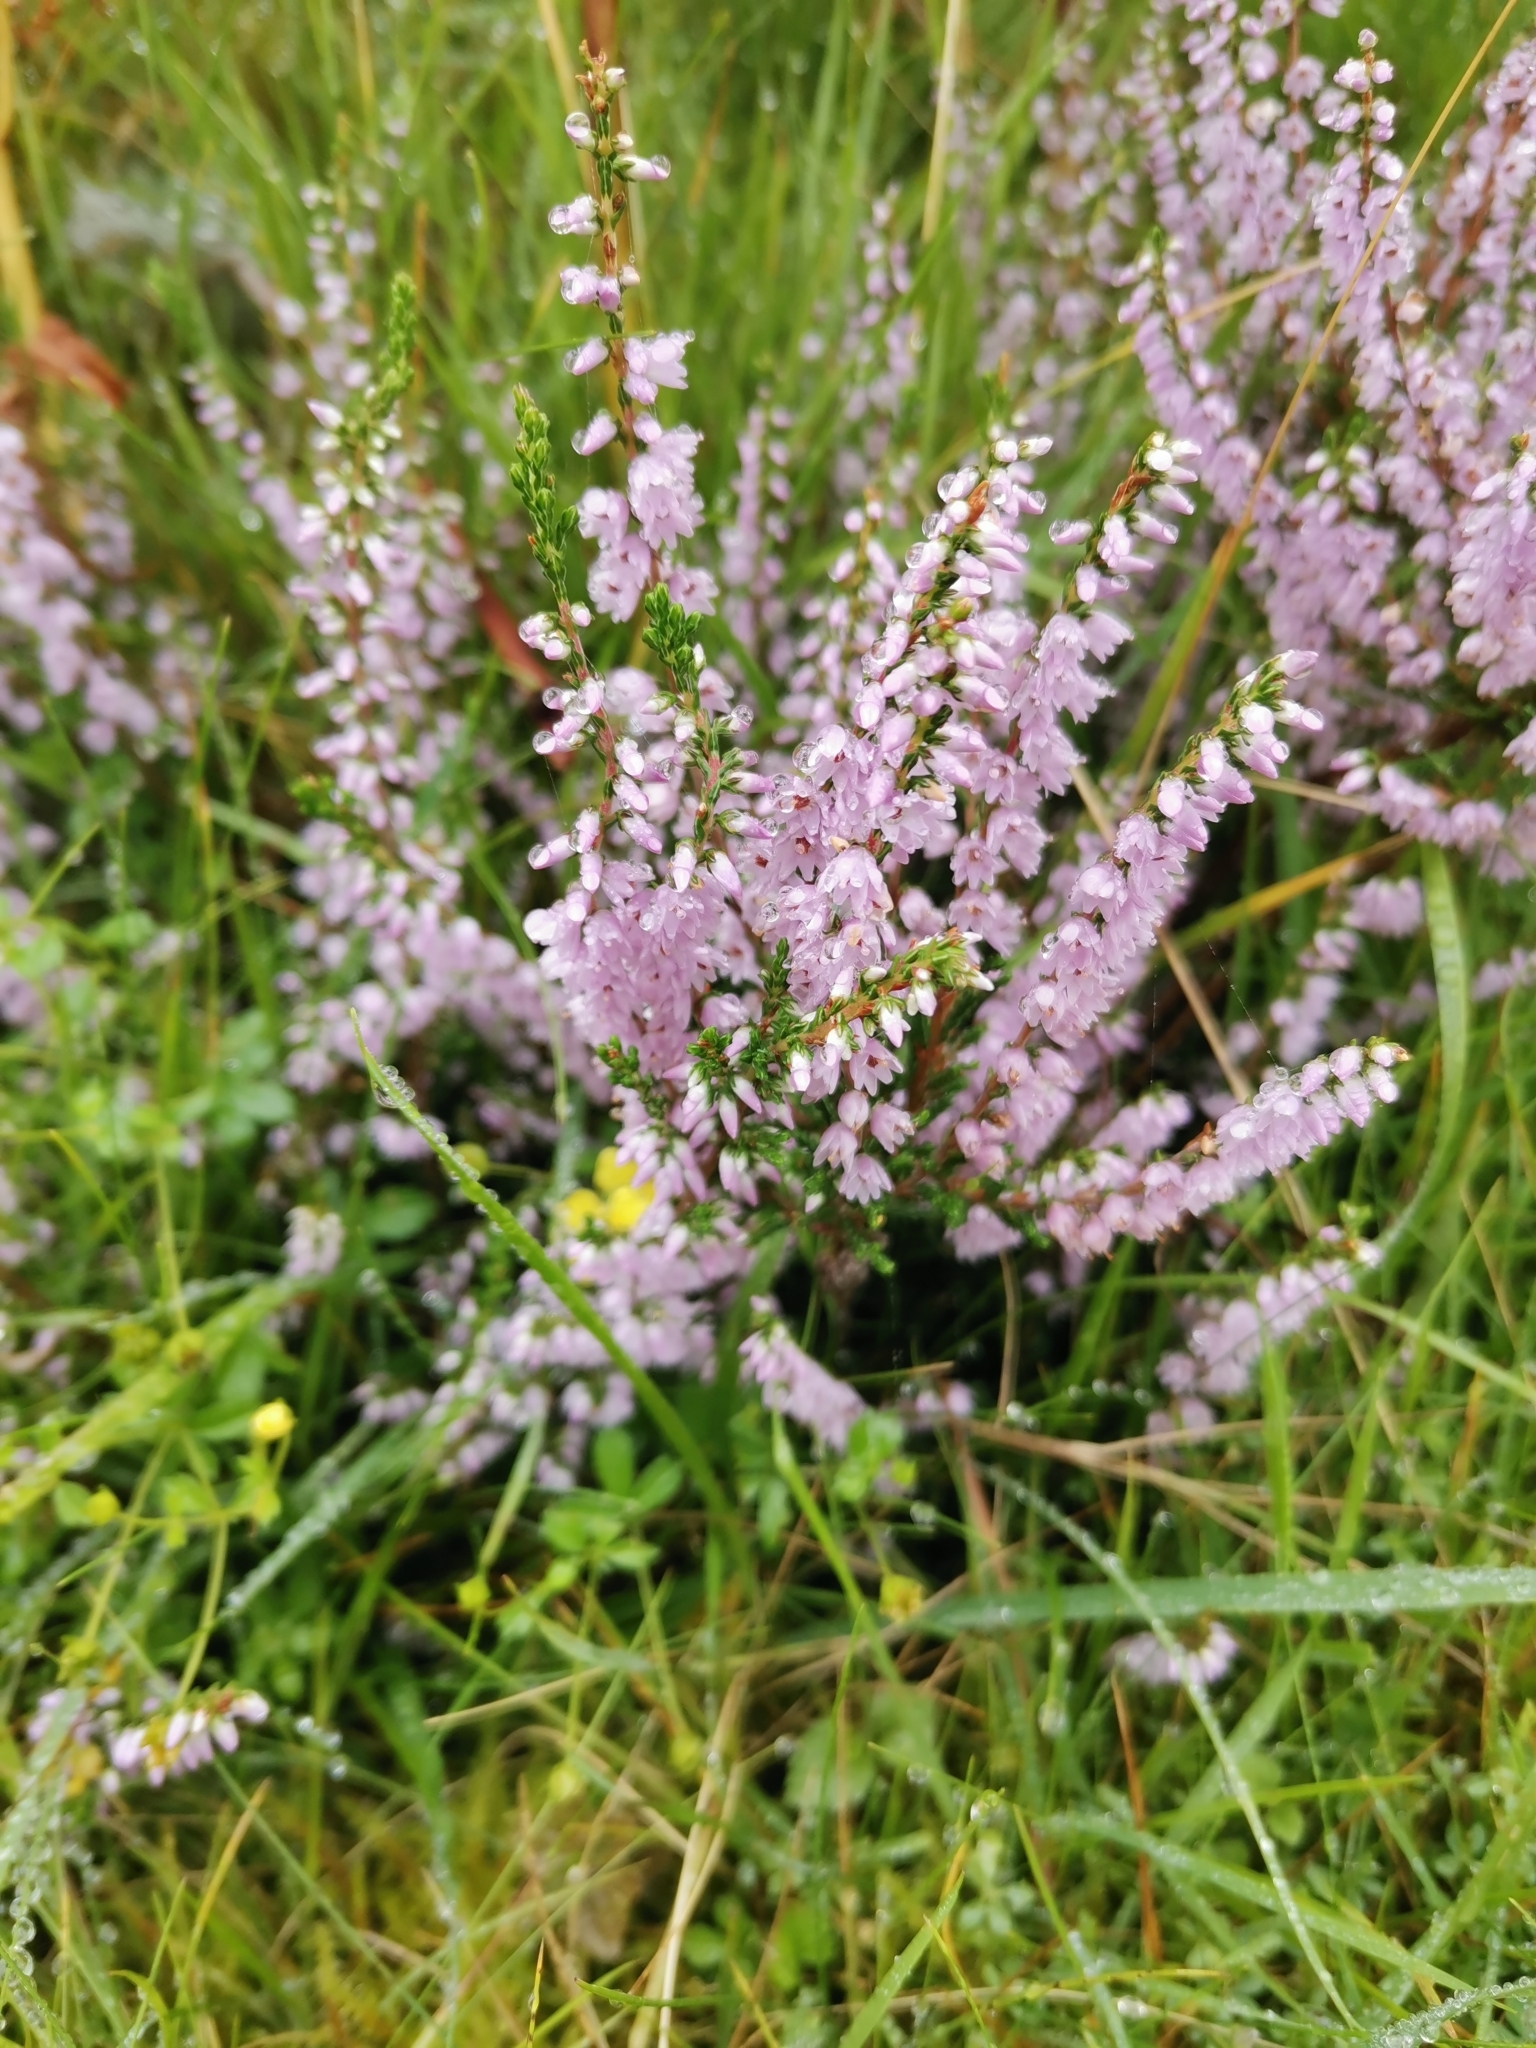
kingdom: Plantae
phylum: Tracheophyta
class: Magnoliopsida
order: Ericales
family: Ericaceae
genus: Calluna
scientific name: Calluna vulgaris
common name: Heather
